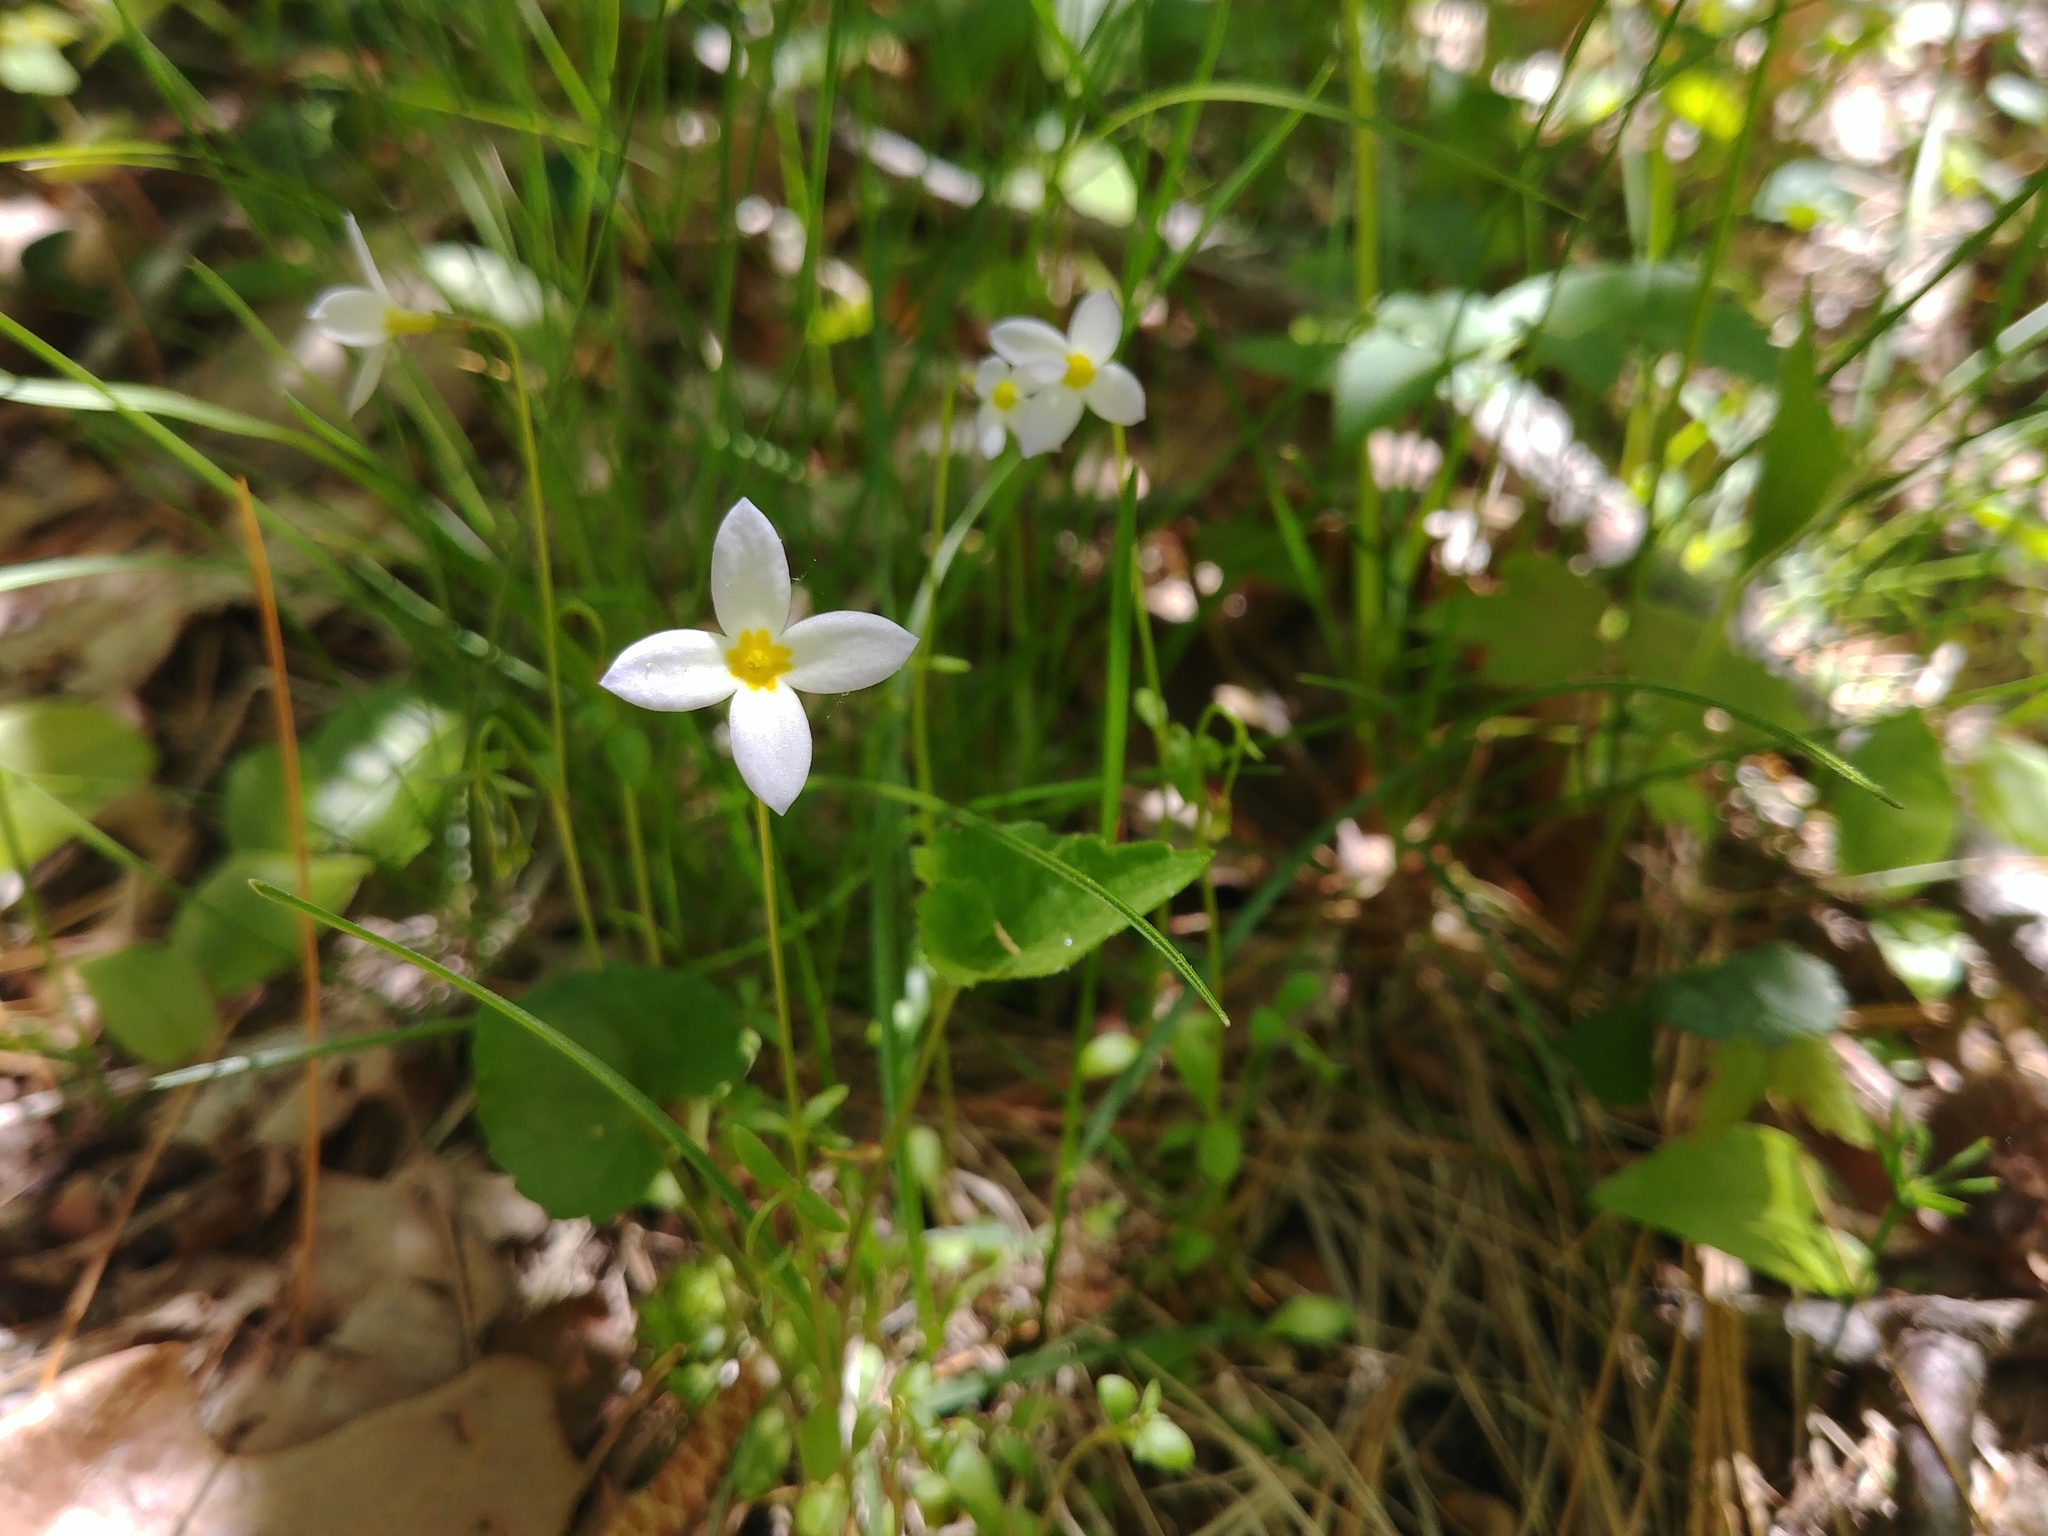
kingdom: Plantae
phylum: Tracheophyta
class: Magnoliopsida
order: Gentianales
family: Rubiaceae
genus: Houstonia
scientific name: Houstonia caerulea
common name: Bluets
